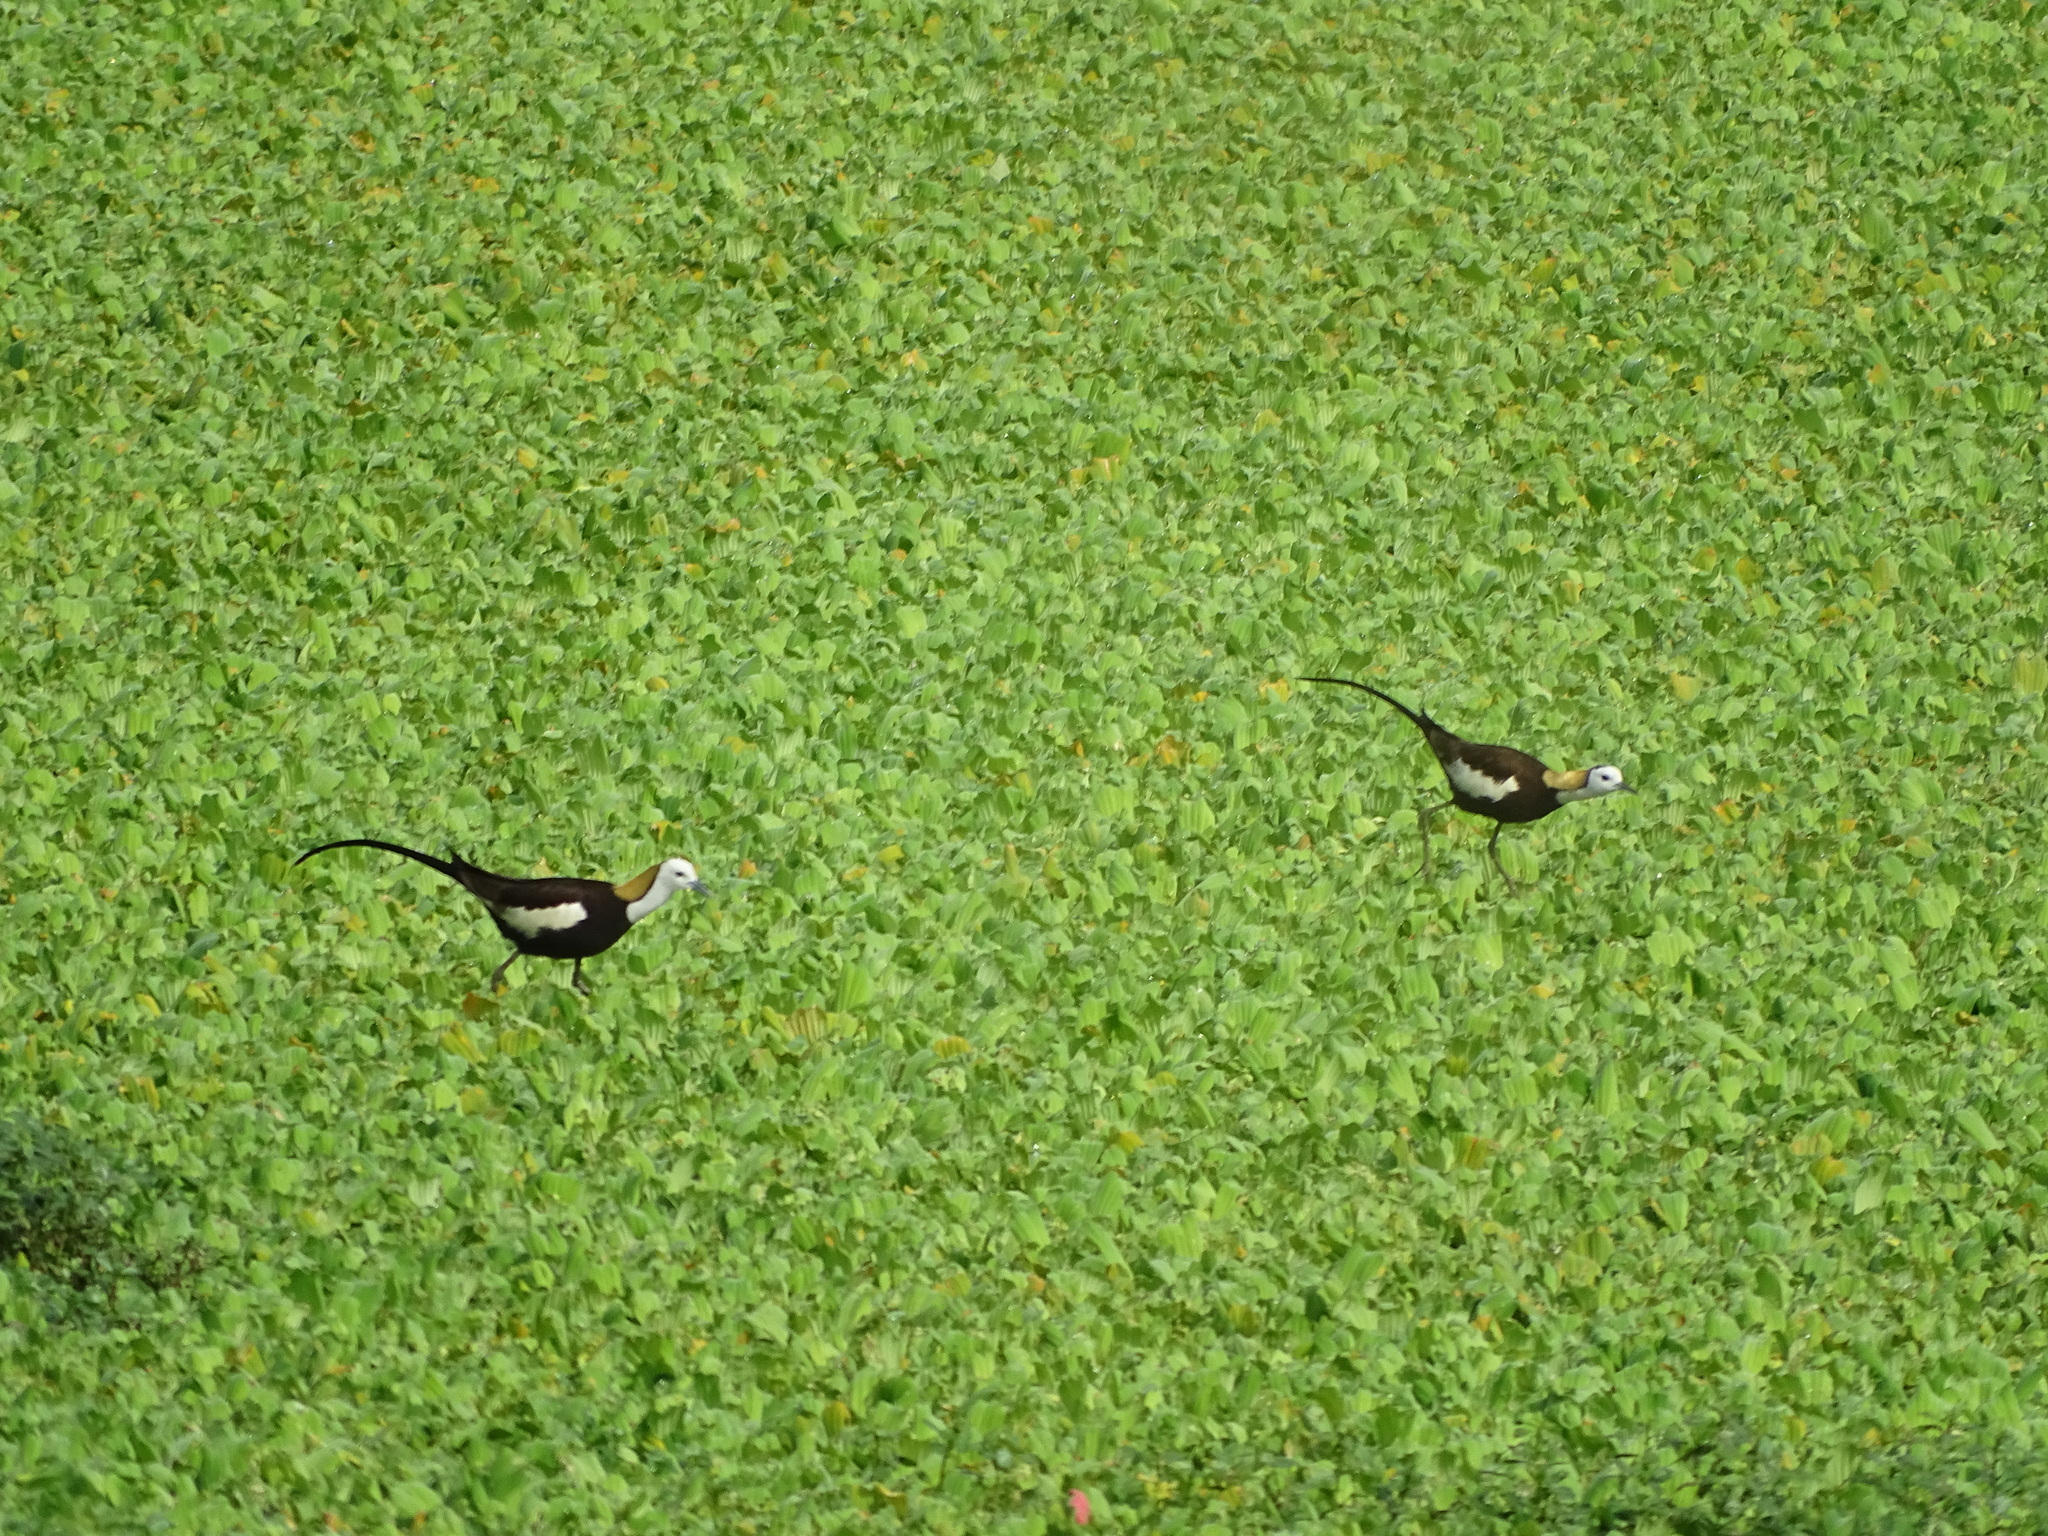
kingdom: Animalia
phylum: Chordata
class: Aves
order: Charadriiformes
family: Jacanidae
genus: Hydrophasianus
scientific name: Hydrophasianus chirurgus
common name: Pheasant-tailed jacana
